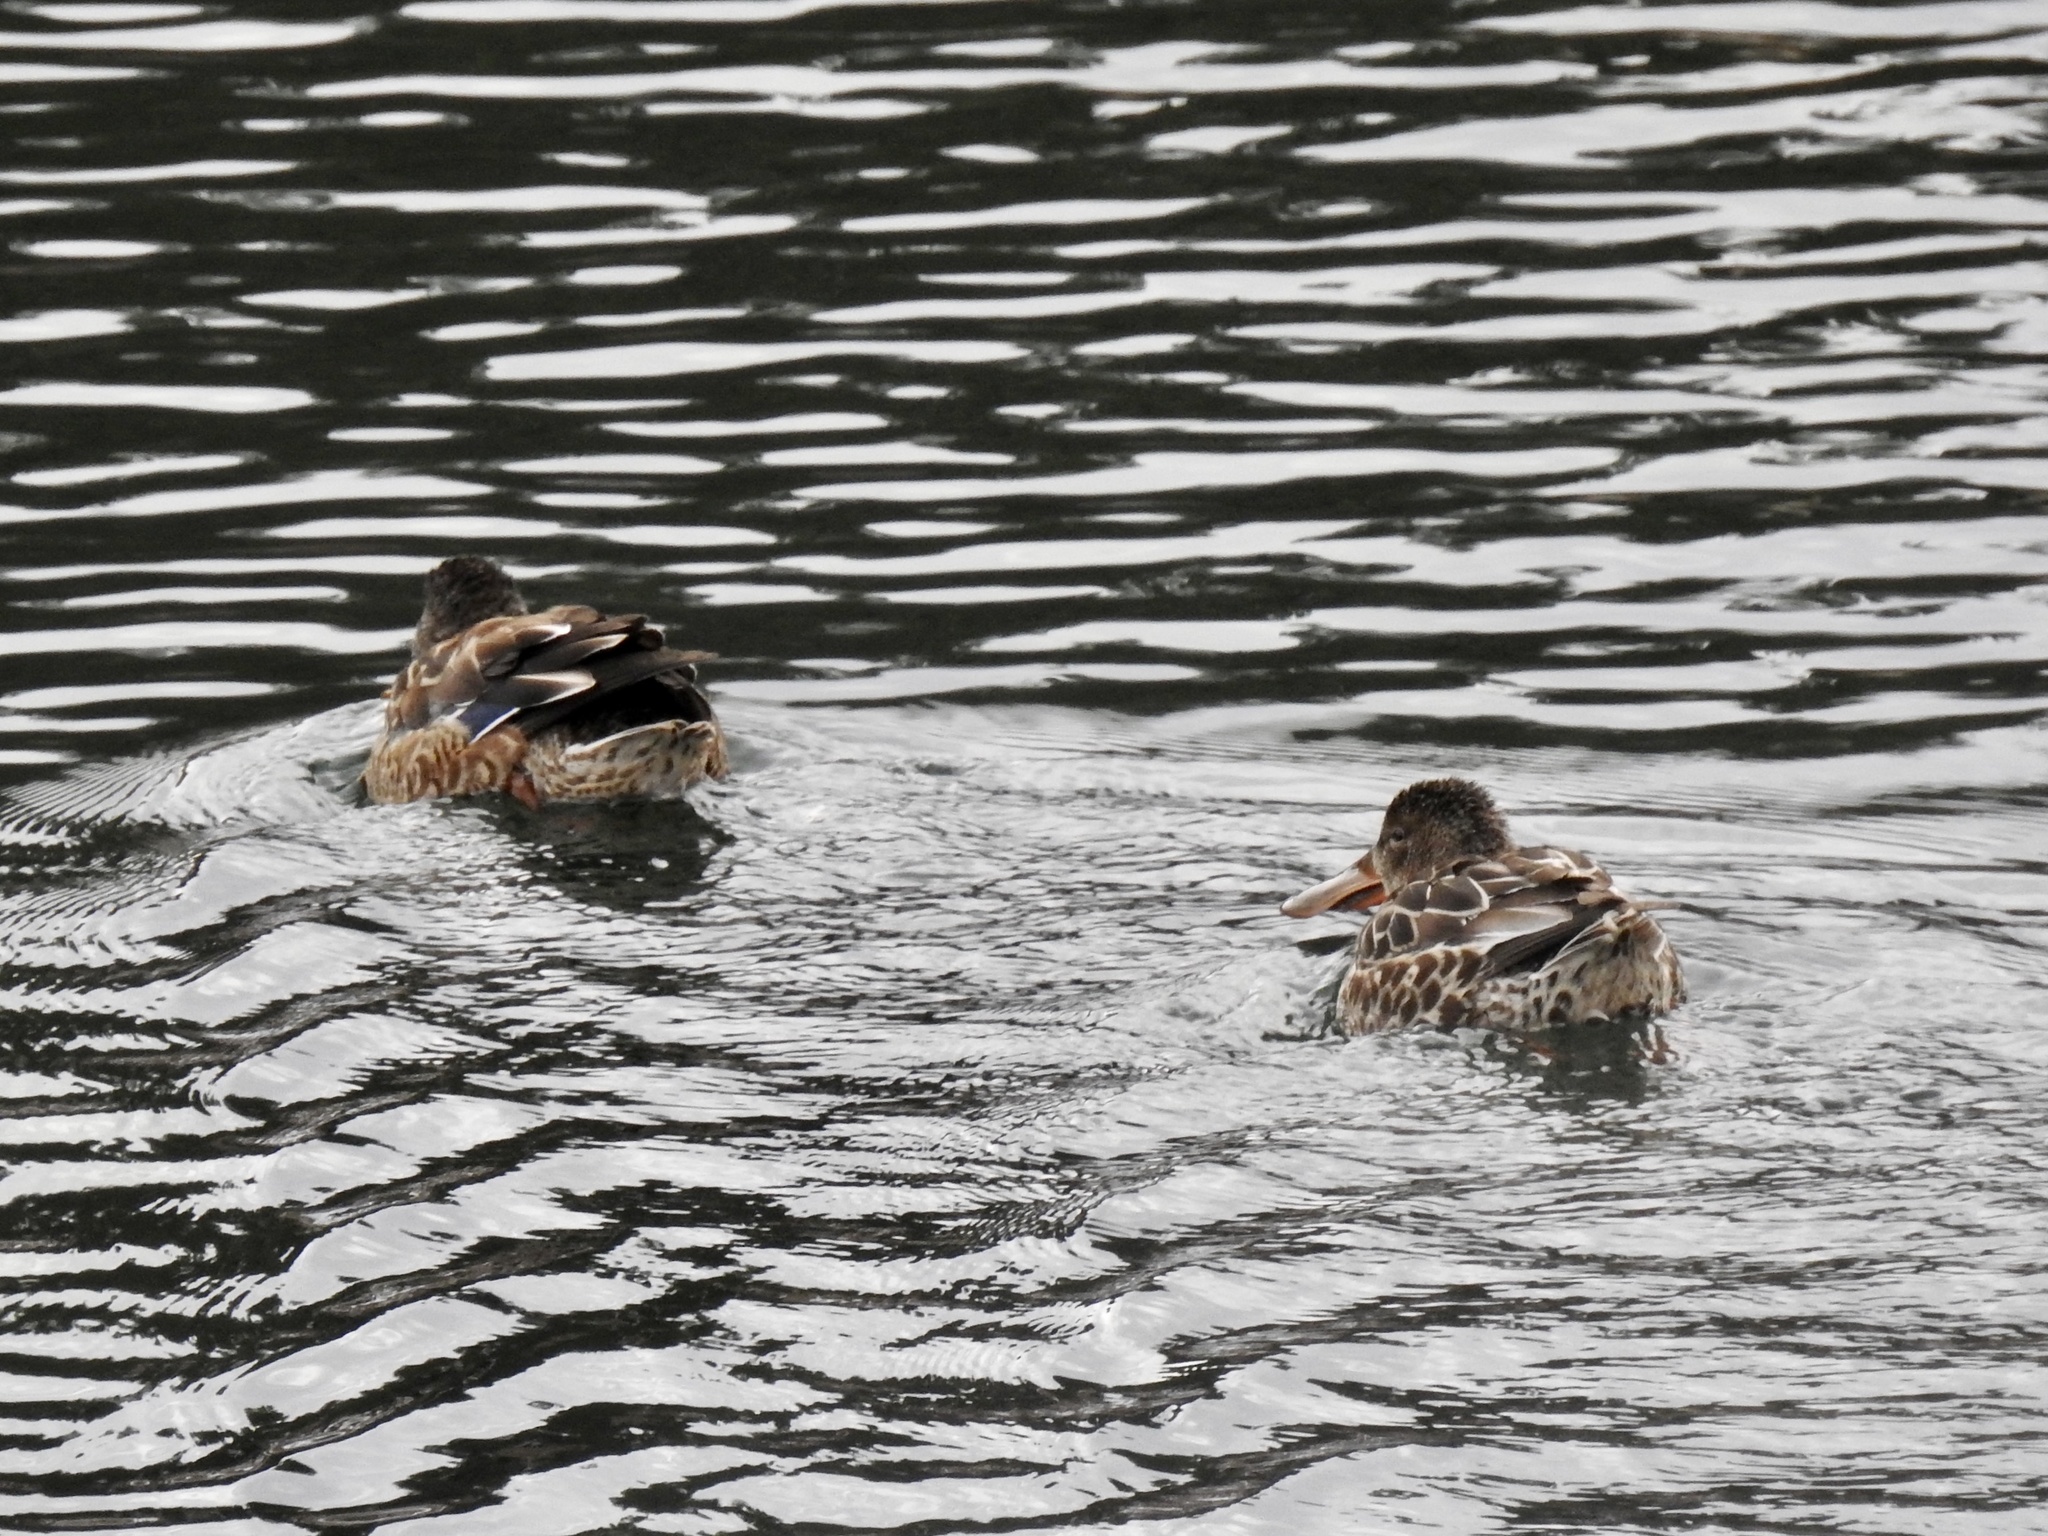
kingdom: Animalia
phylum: Chordata
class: Aves
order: Anseriformes
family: Anatidae
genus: Spatula
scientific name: Spatula clypeata
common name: Northern shoveler
